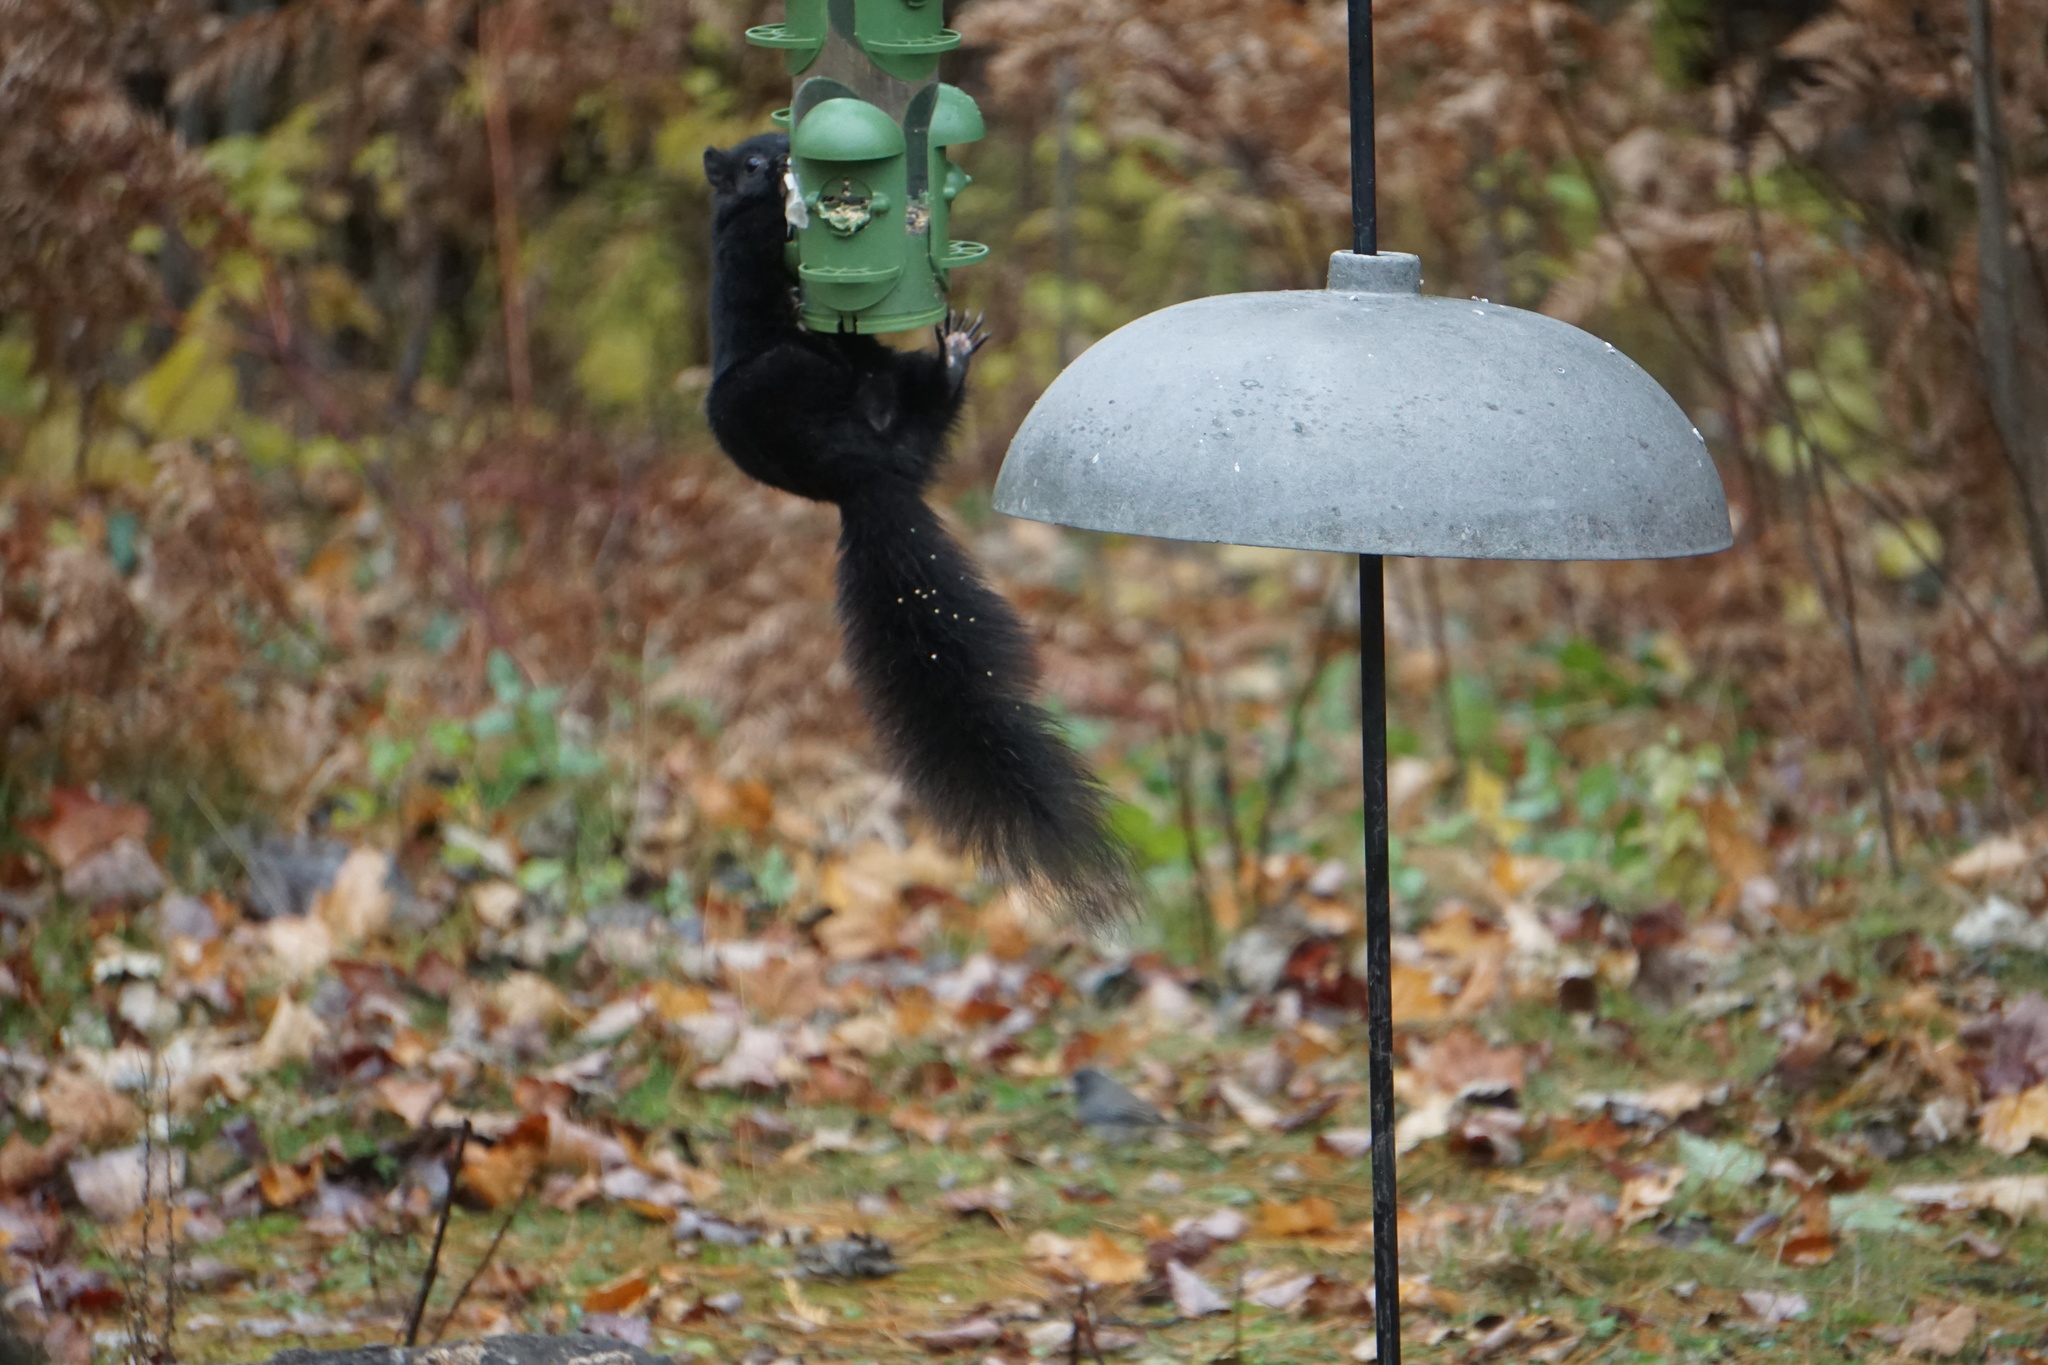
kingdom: Animalia
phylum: Chordata
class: Mammalia
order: Rodentia
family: Sciuridae
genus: Sciurus
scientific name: Sciurus carolinensis
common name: Eastern gray squirrel
